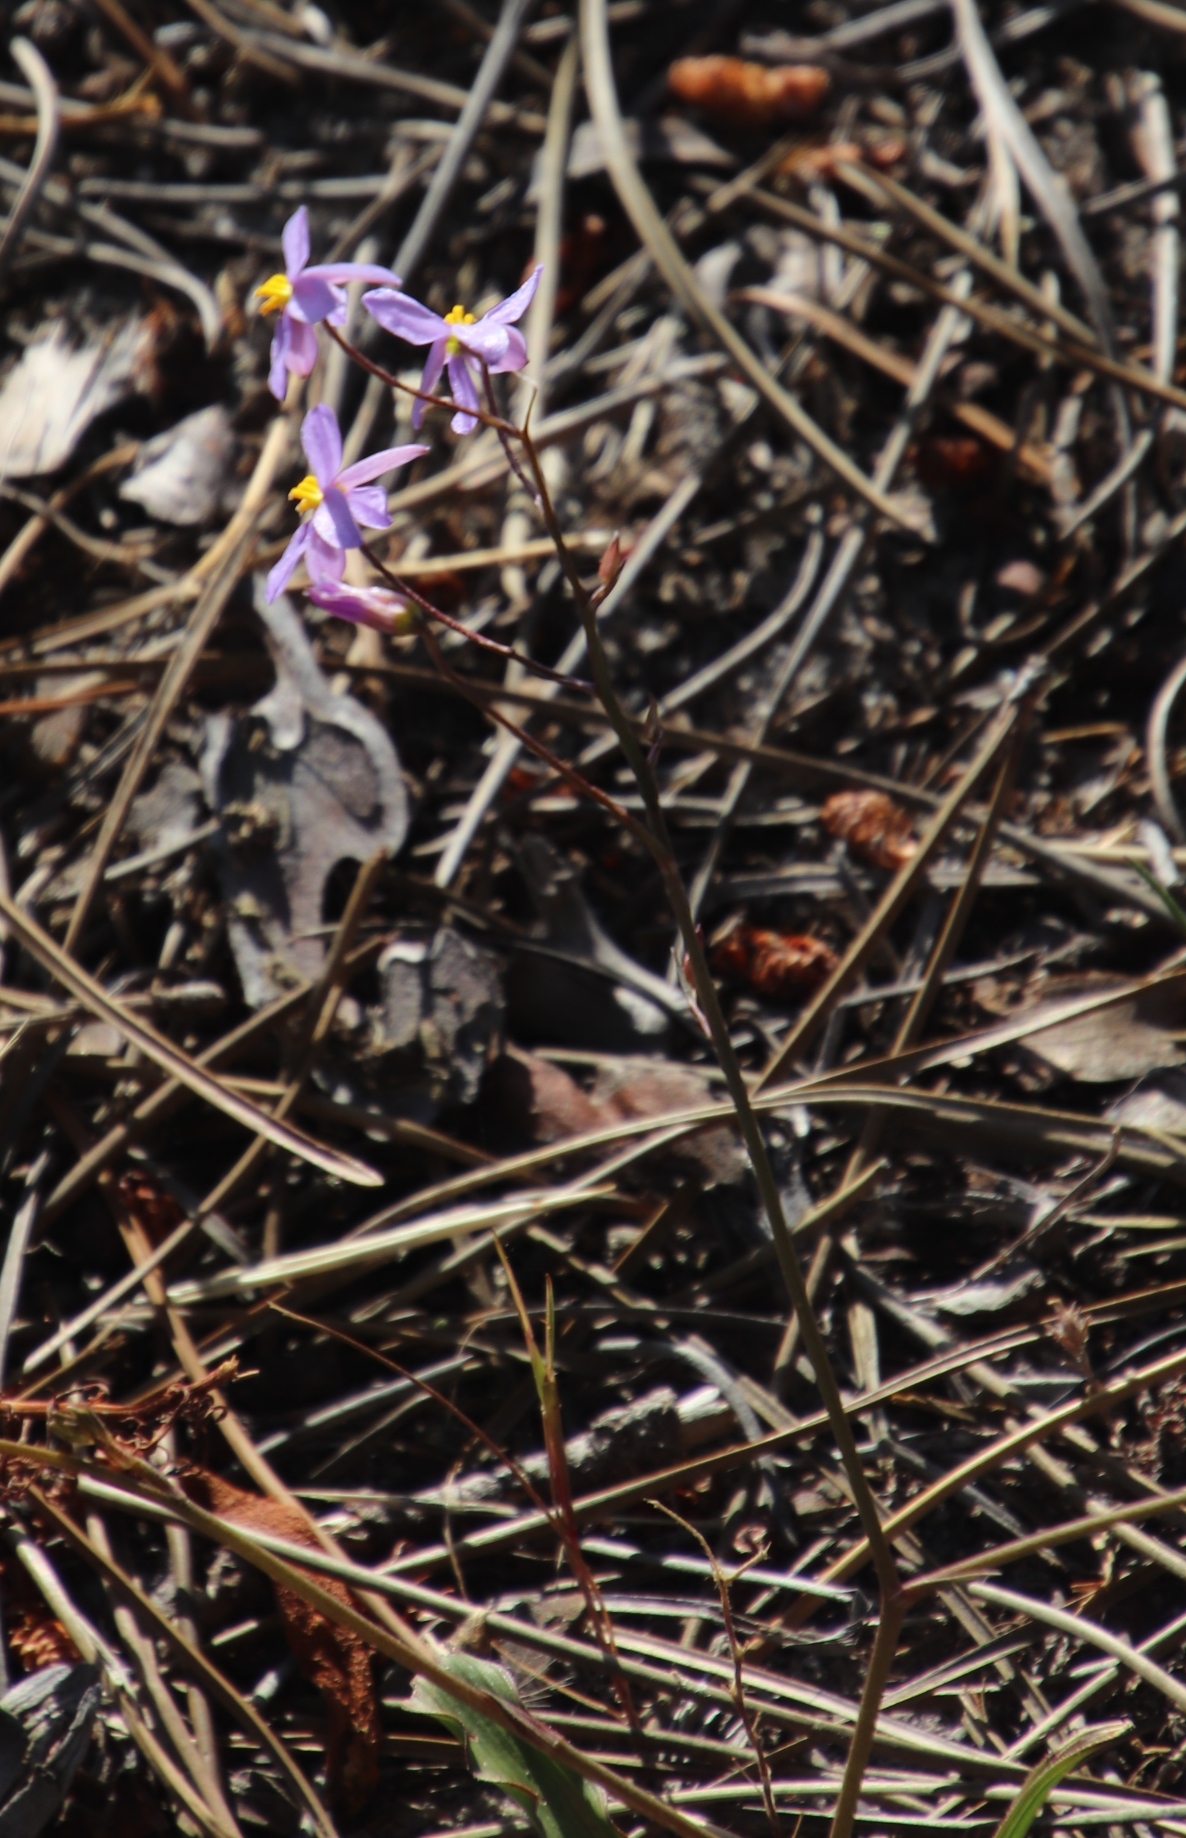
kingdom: Plantae
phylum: Tracheophyta
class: Liliopsida
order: Asparagales
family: Tecophilaeaceae
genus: Cyanella
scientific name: Cyanella hyacinthoides
